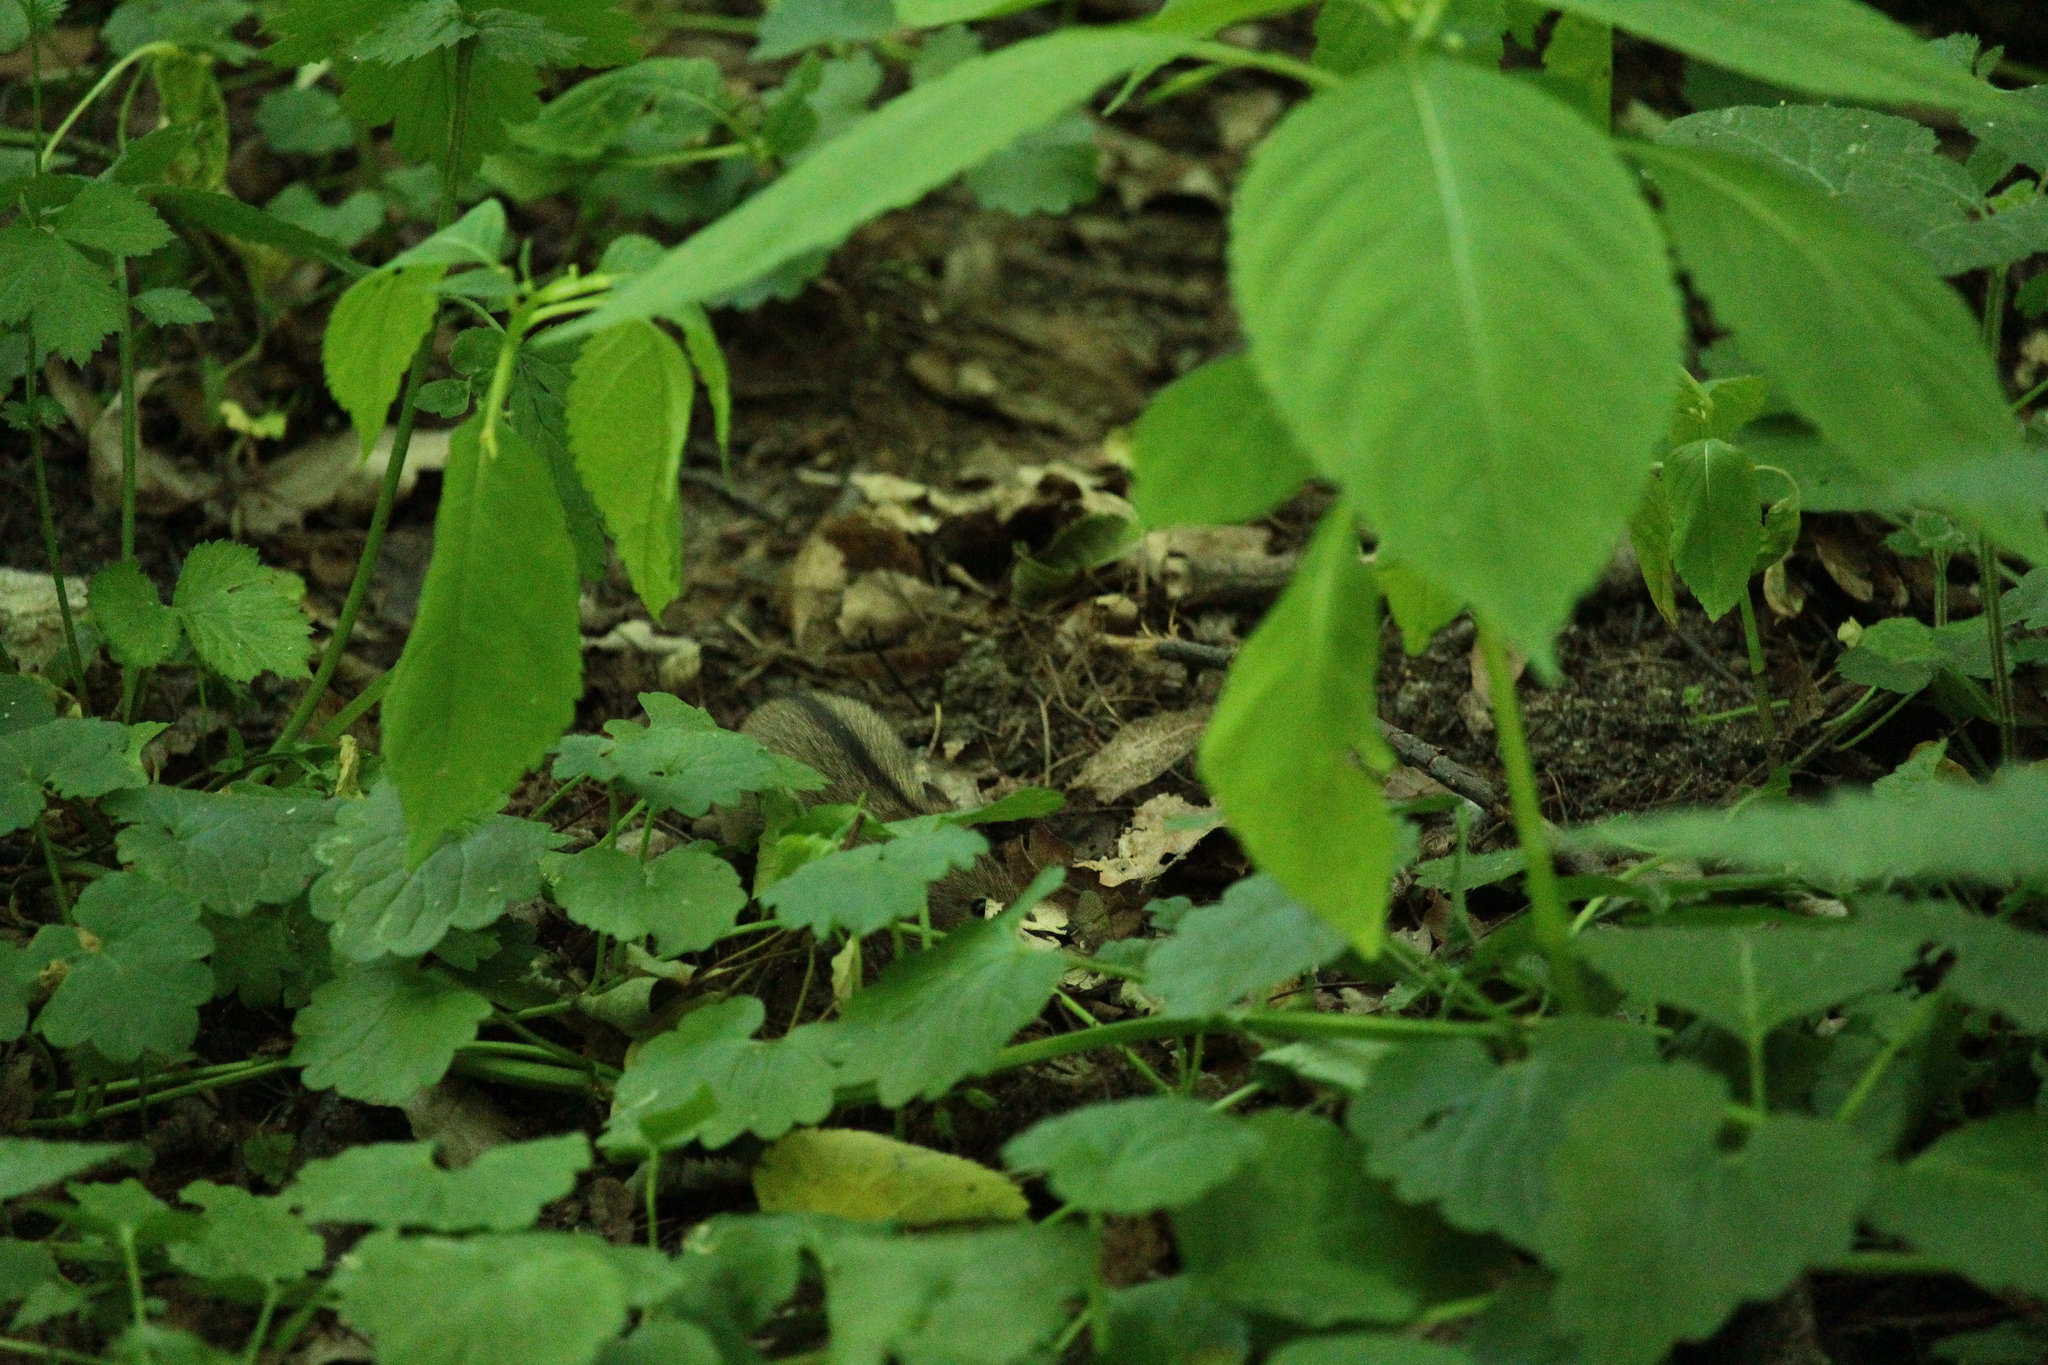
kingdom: Animalia
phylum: Chordata
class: Mammalia
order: Rodentia
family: Muridae
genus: Apodemus
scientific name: Apodemus agrarius
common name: Striped field mouse
